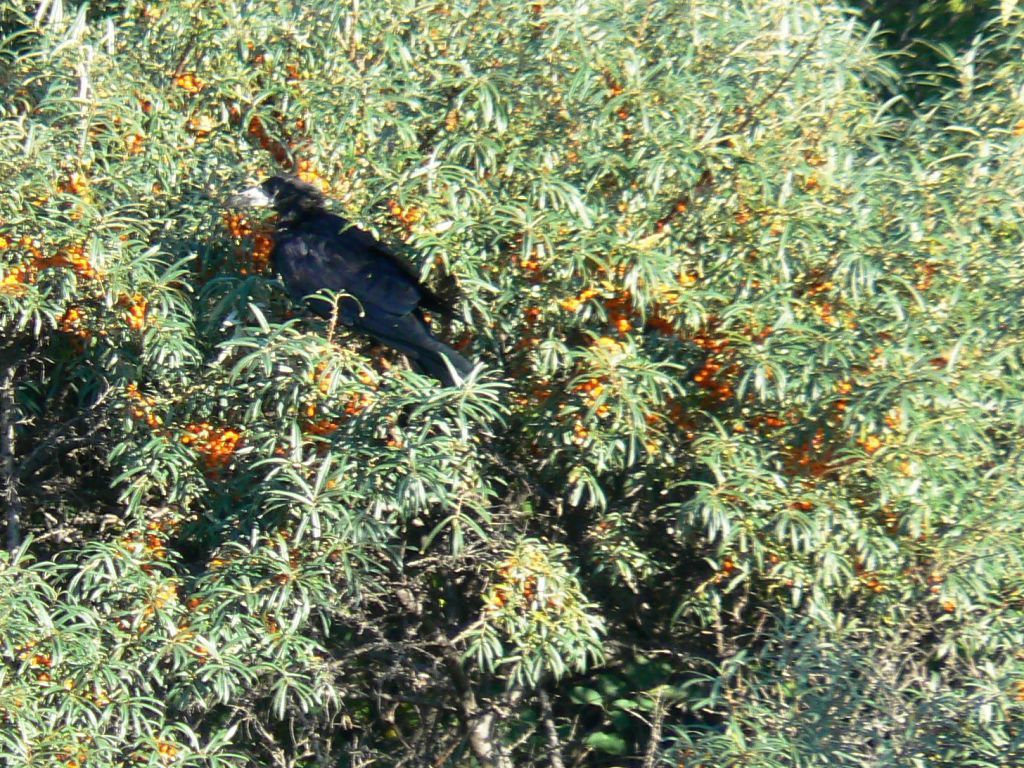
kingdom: Animalia
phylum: Chordata
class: Aves
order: Passeriformes
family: Corvidae
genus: Corvus
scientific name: Corvus frugilegus
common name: Rook
